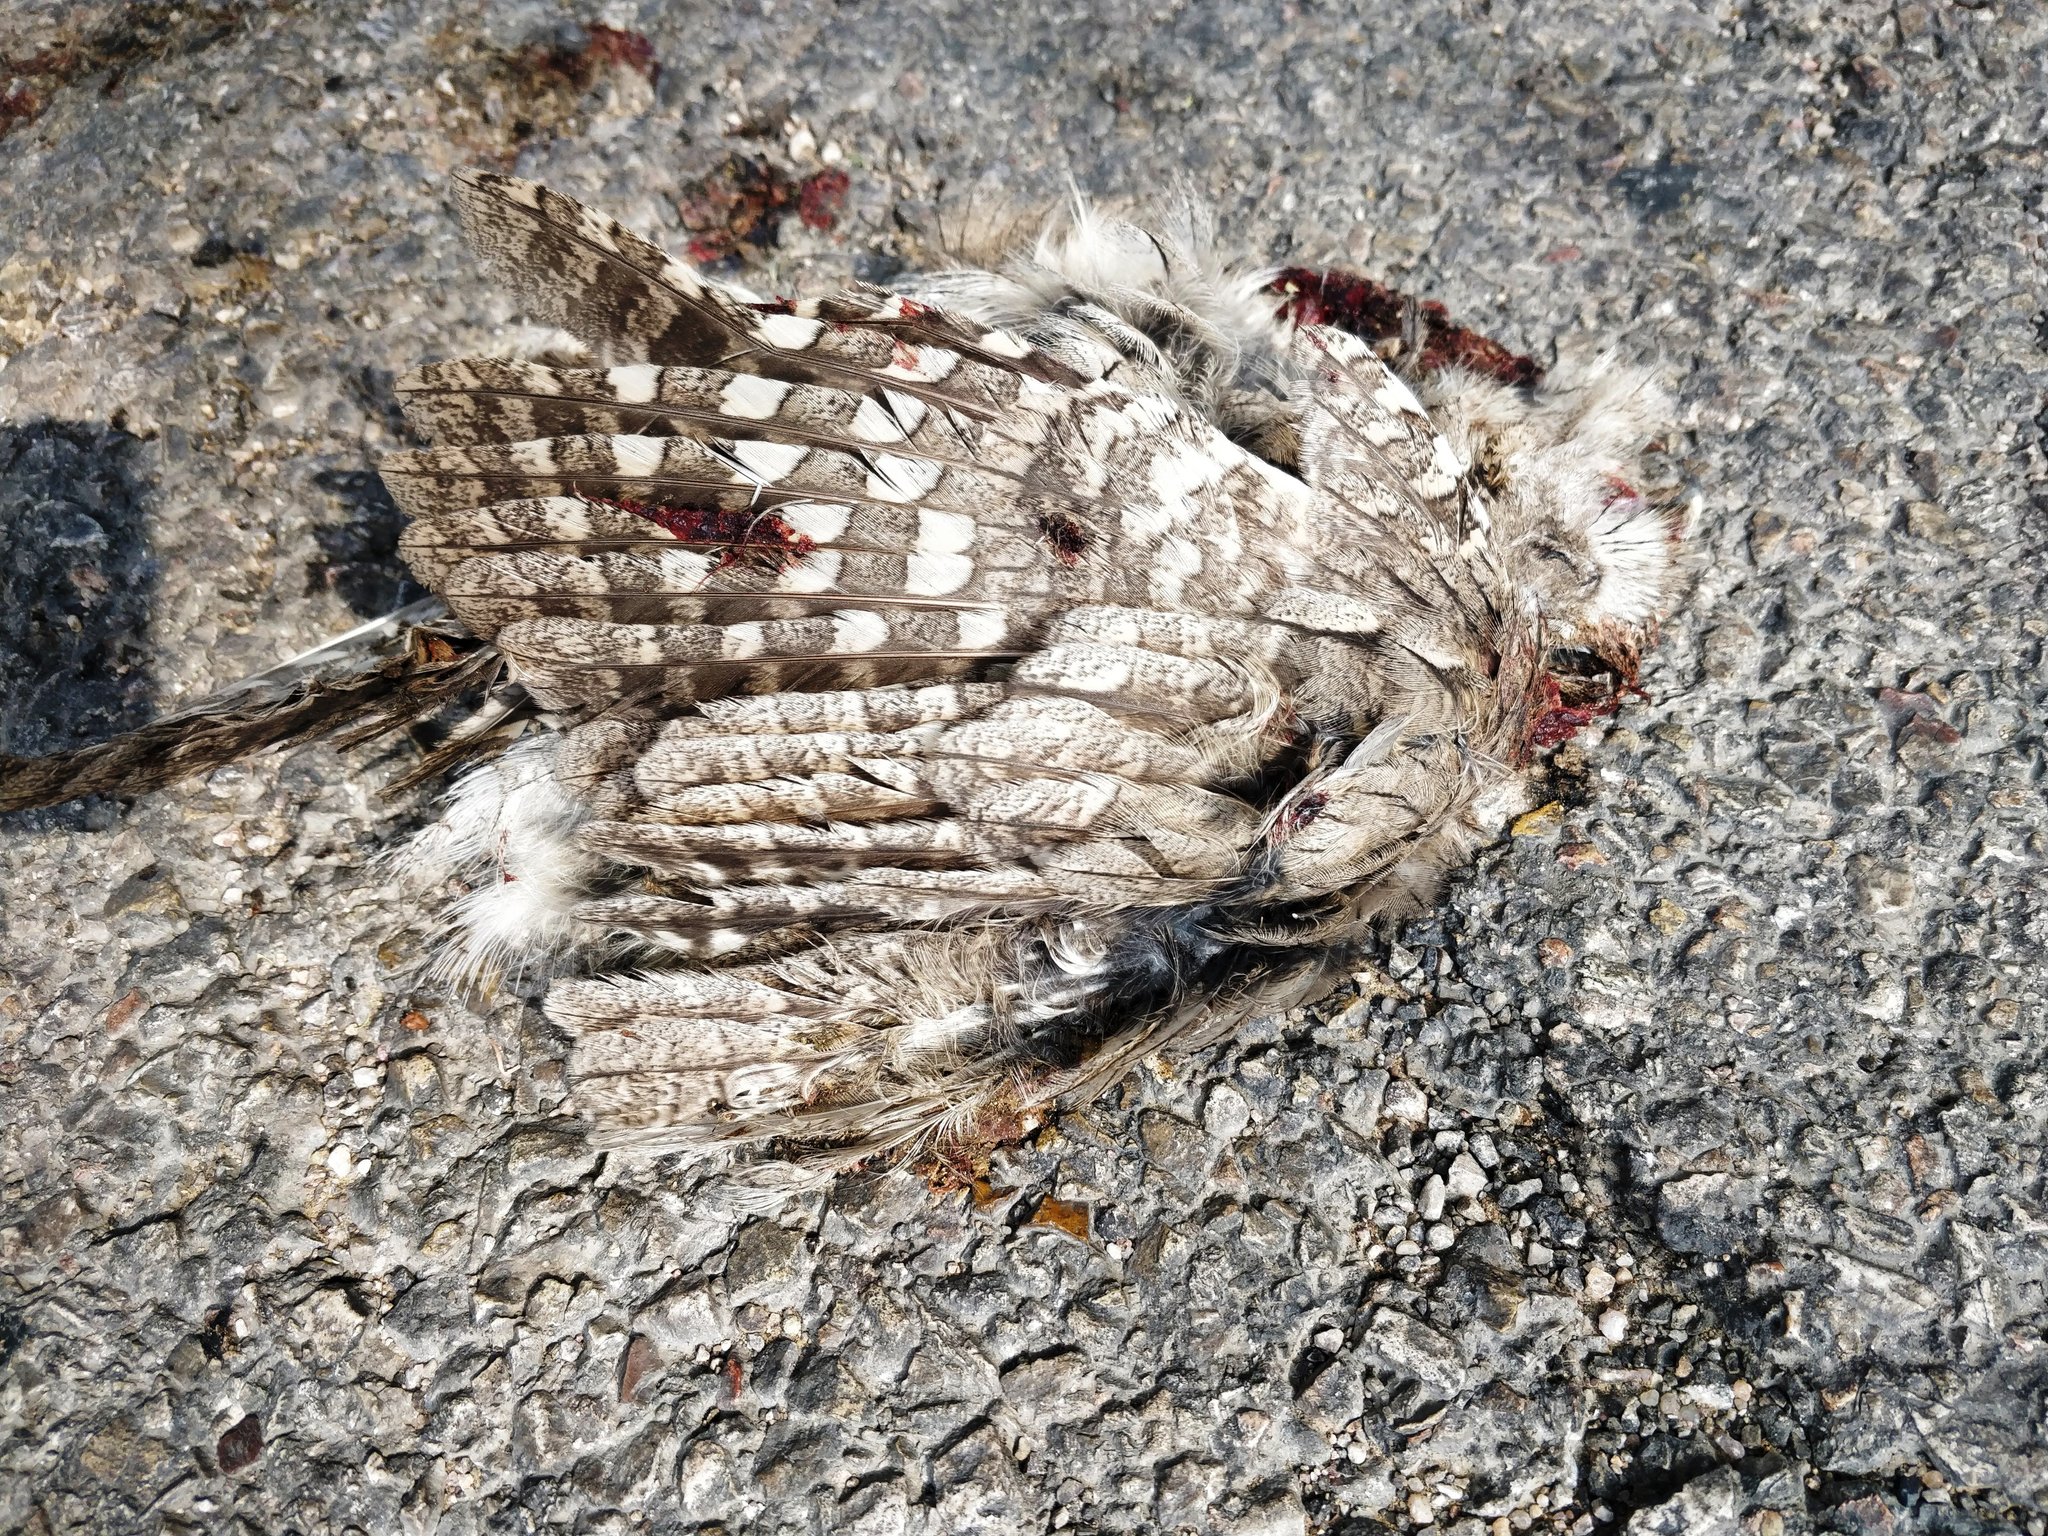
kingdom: Animalia
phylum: Chordata
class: Aves
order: Strigiformes
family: Strigidae
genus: Otus
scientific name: Otus brucei
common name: Pallid scops owl
